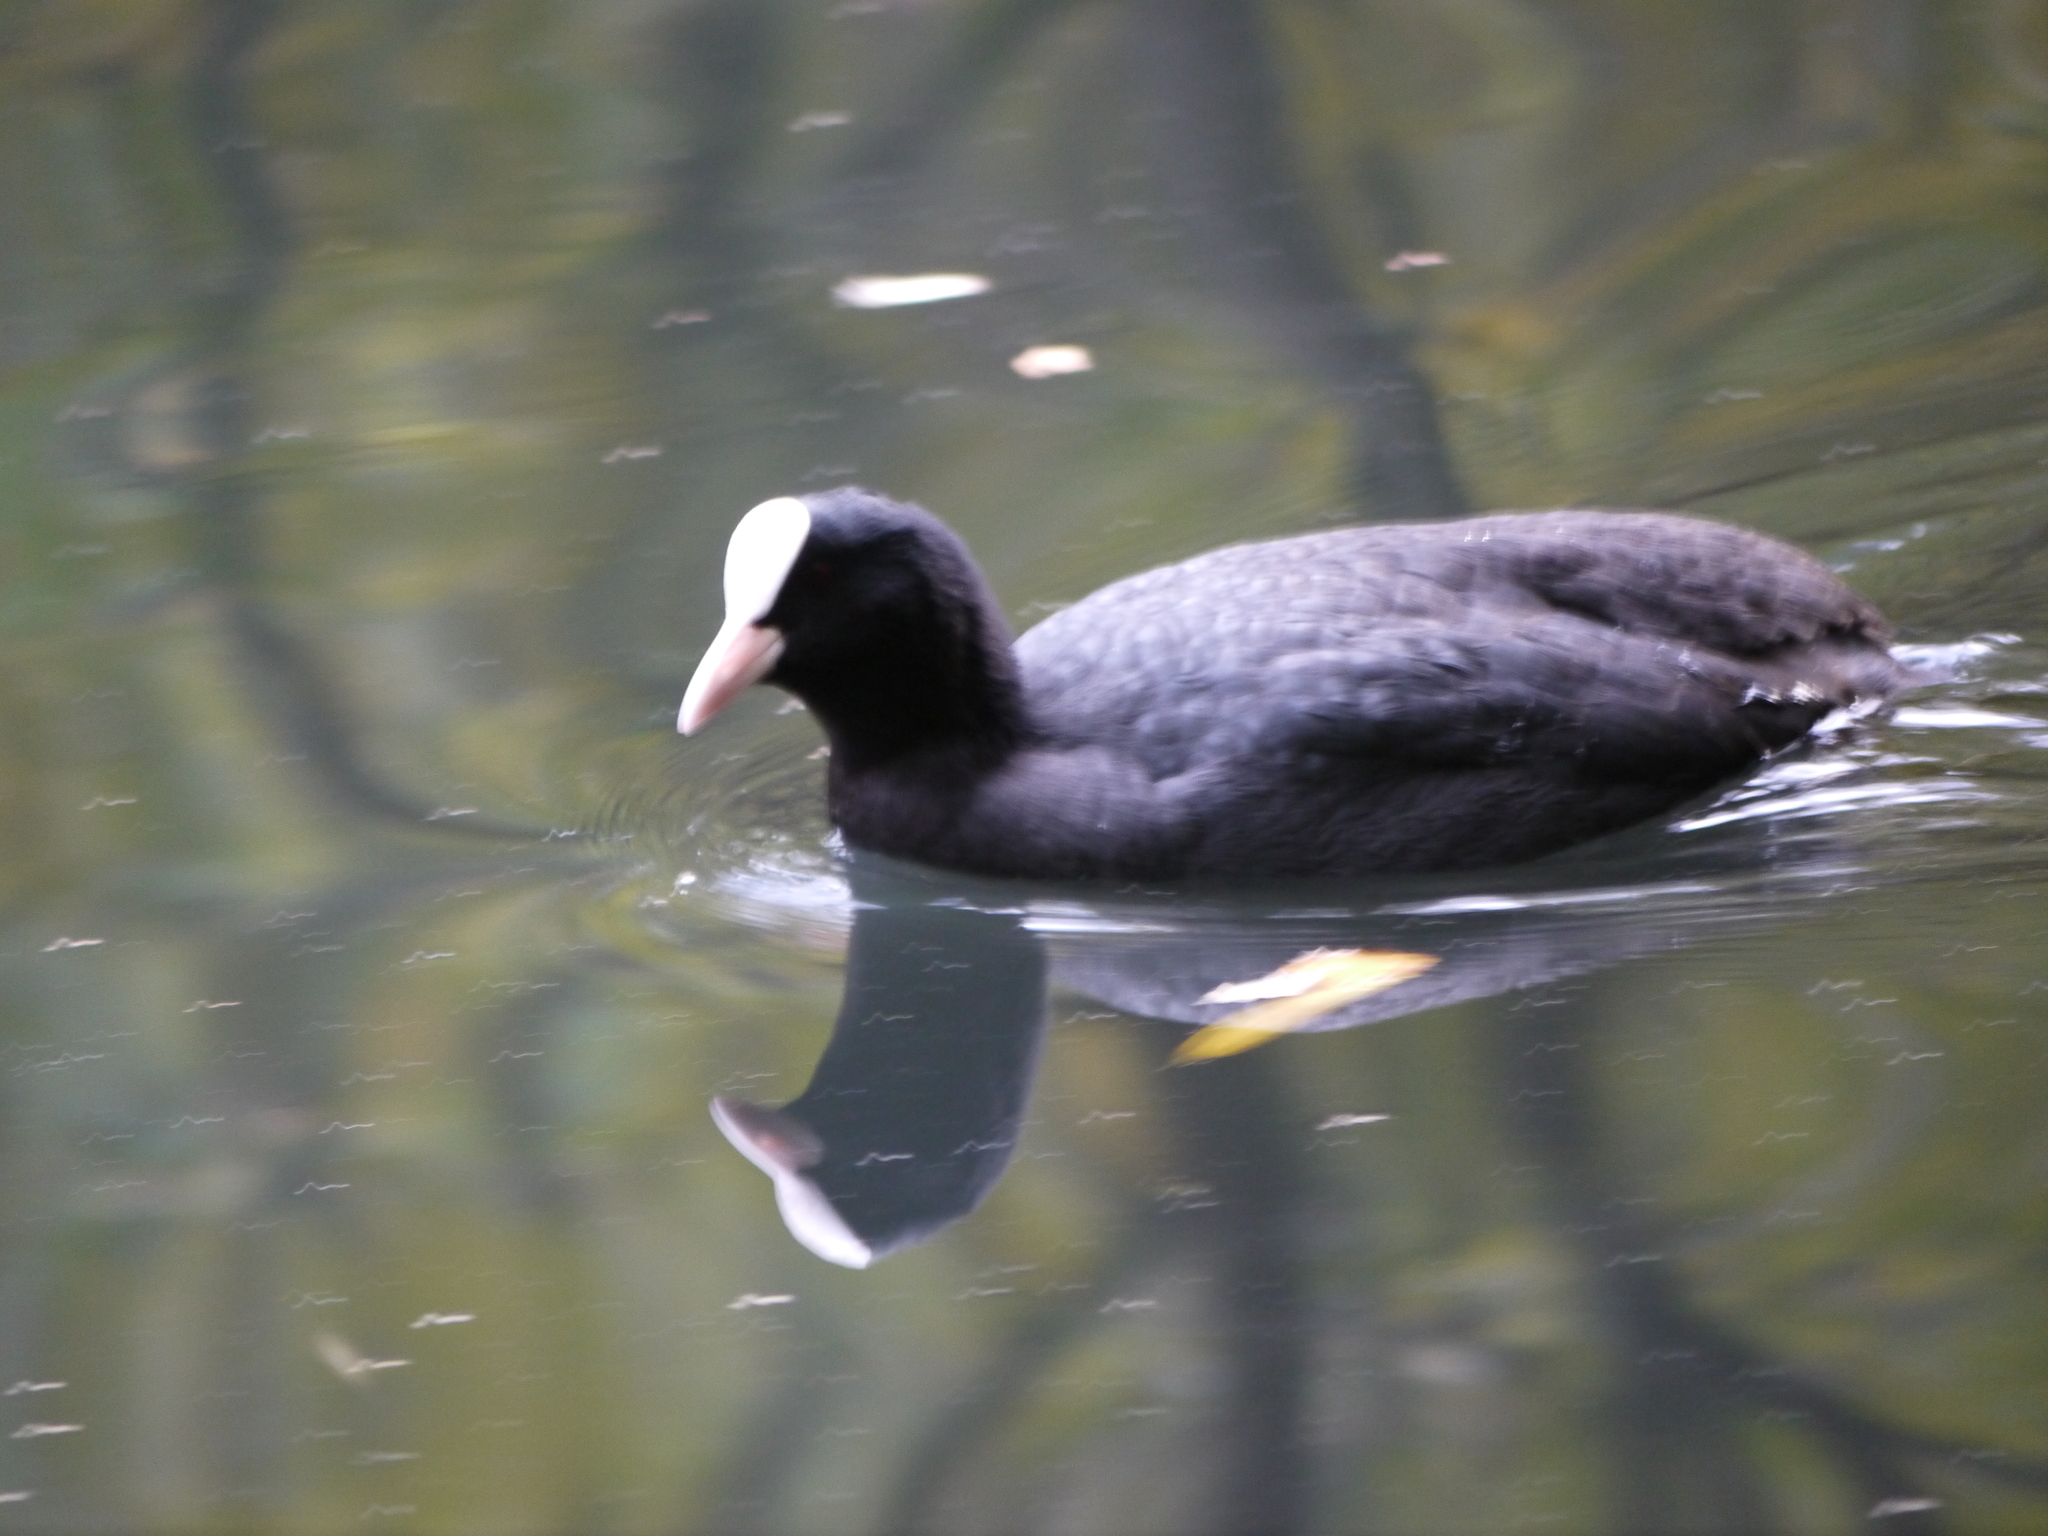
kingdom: Animalia
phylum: Chordata
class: Aves
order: Gruiformes
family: Rallidae
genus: Fulica
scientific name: Fulica atra
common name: Eurasian coot
